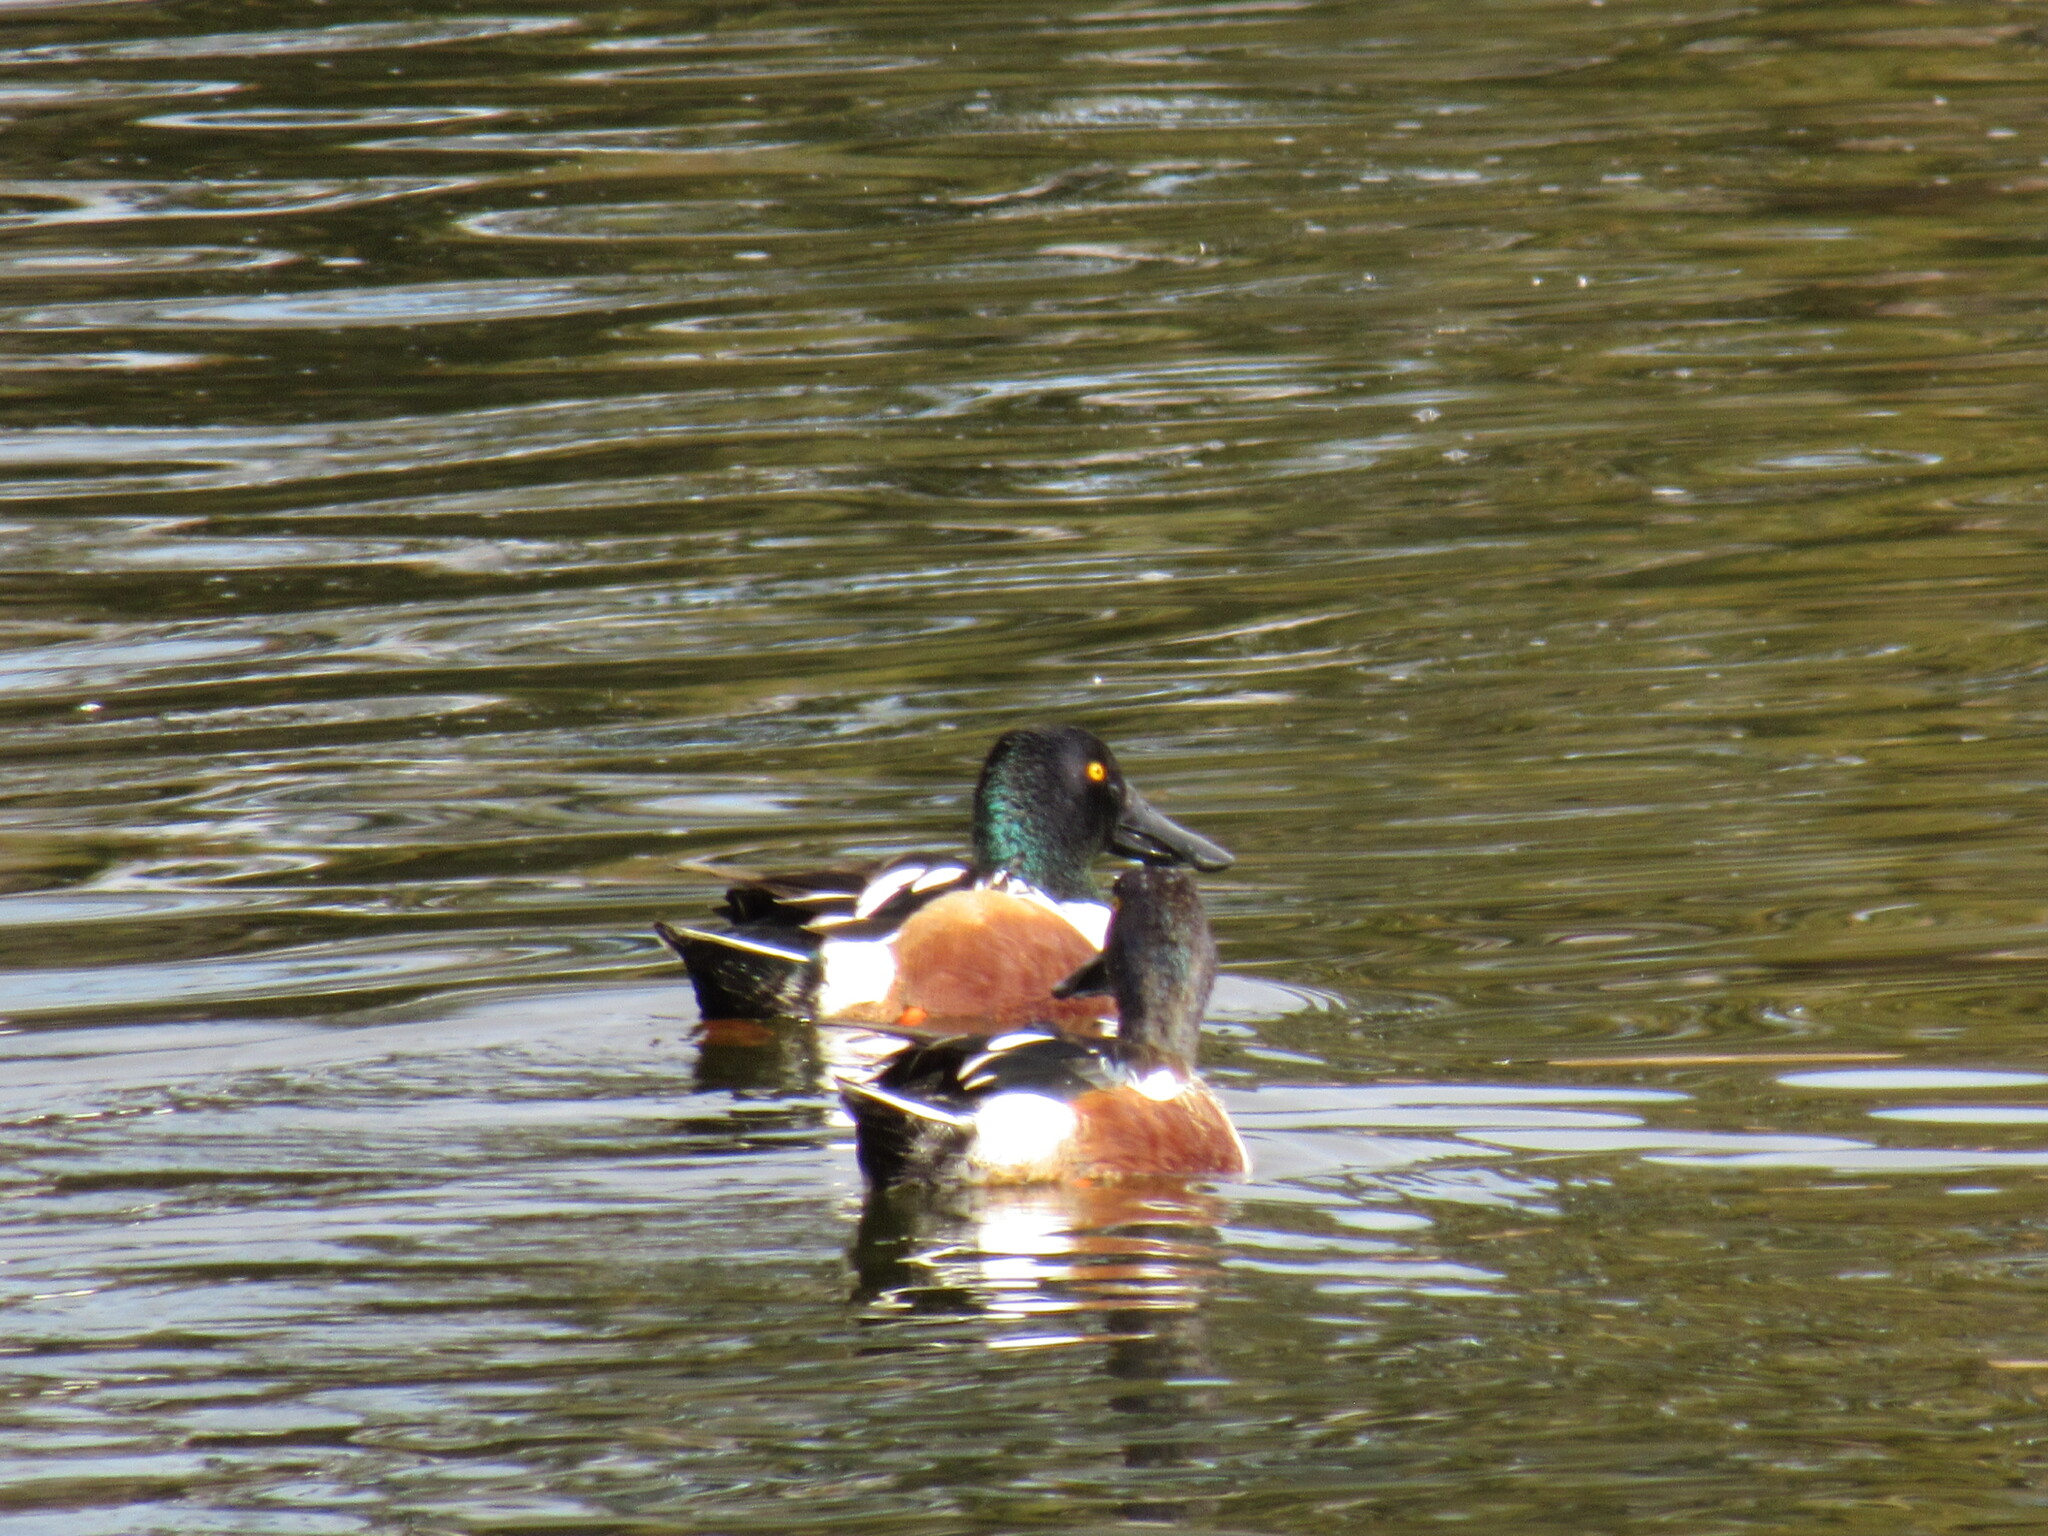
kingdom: Animalia
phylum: Chordata
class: Aves
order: Anseriformes
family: Anatidae
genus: Spatula
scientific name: Spatula clypeata
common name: Northern shoveler
